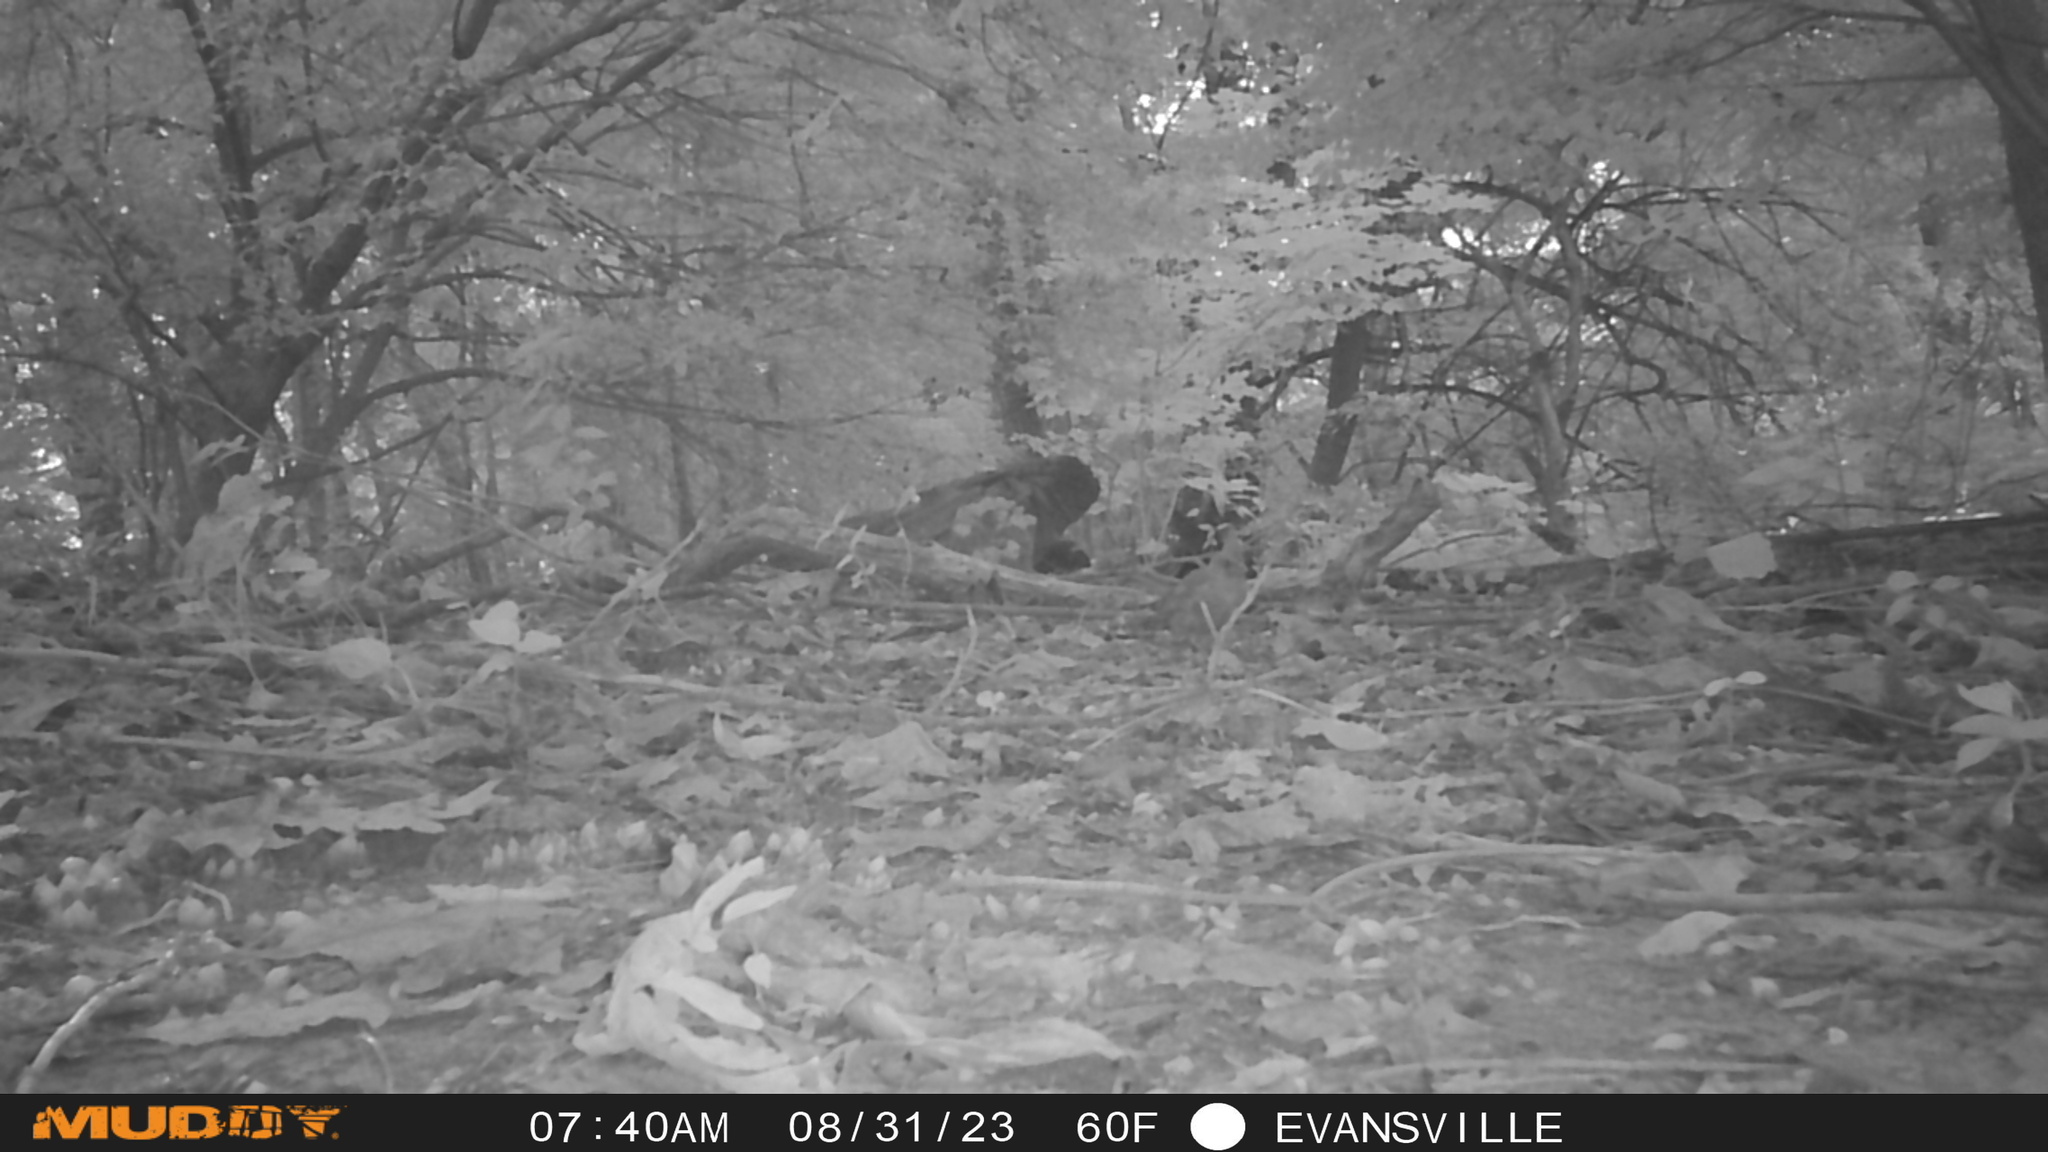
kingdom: Animalia
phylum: Chordata
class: Aves
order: Passeriformes
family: Cardinalidae
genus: Cardinalis
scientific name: Cardinalis cardinalis
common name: Northern cardinal
